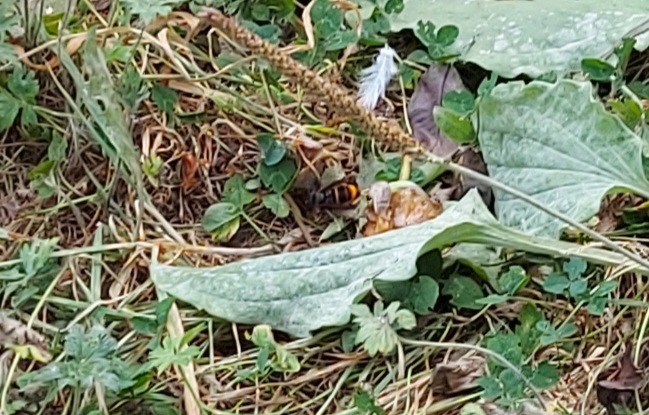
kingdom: Animalia
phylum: Arthropoda
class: Insecta
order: Hymenoptera
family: Vespidae
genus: Vespa
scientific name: Vespa velutina
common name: Asian hornet
